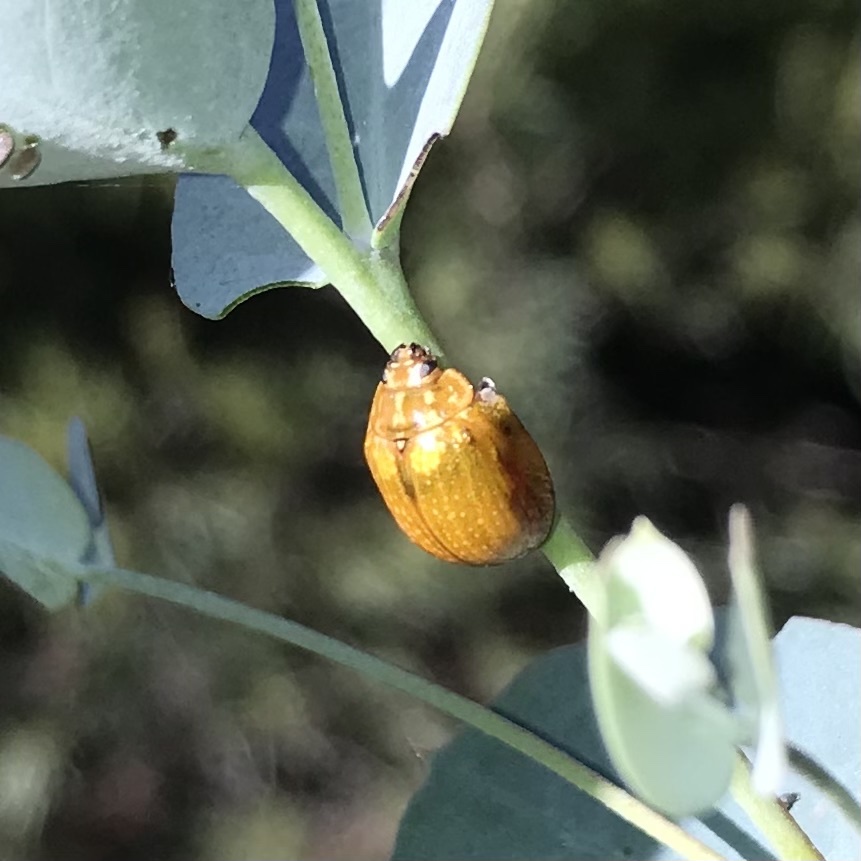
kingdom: Animalia
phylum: Arthropoda
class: Insecta
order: Coleoptera
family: Chrysomelidae
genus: Paropsisterna
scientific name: Paropsisterna cloelia
